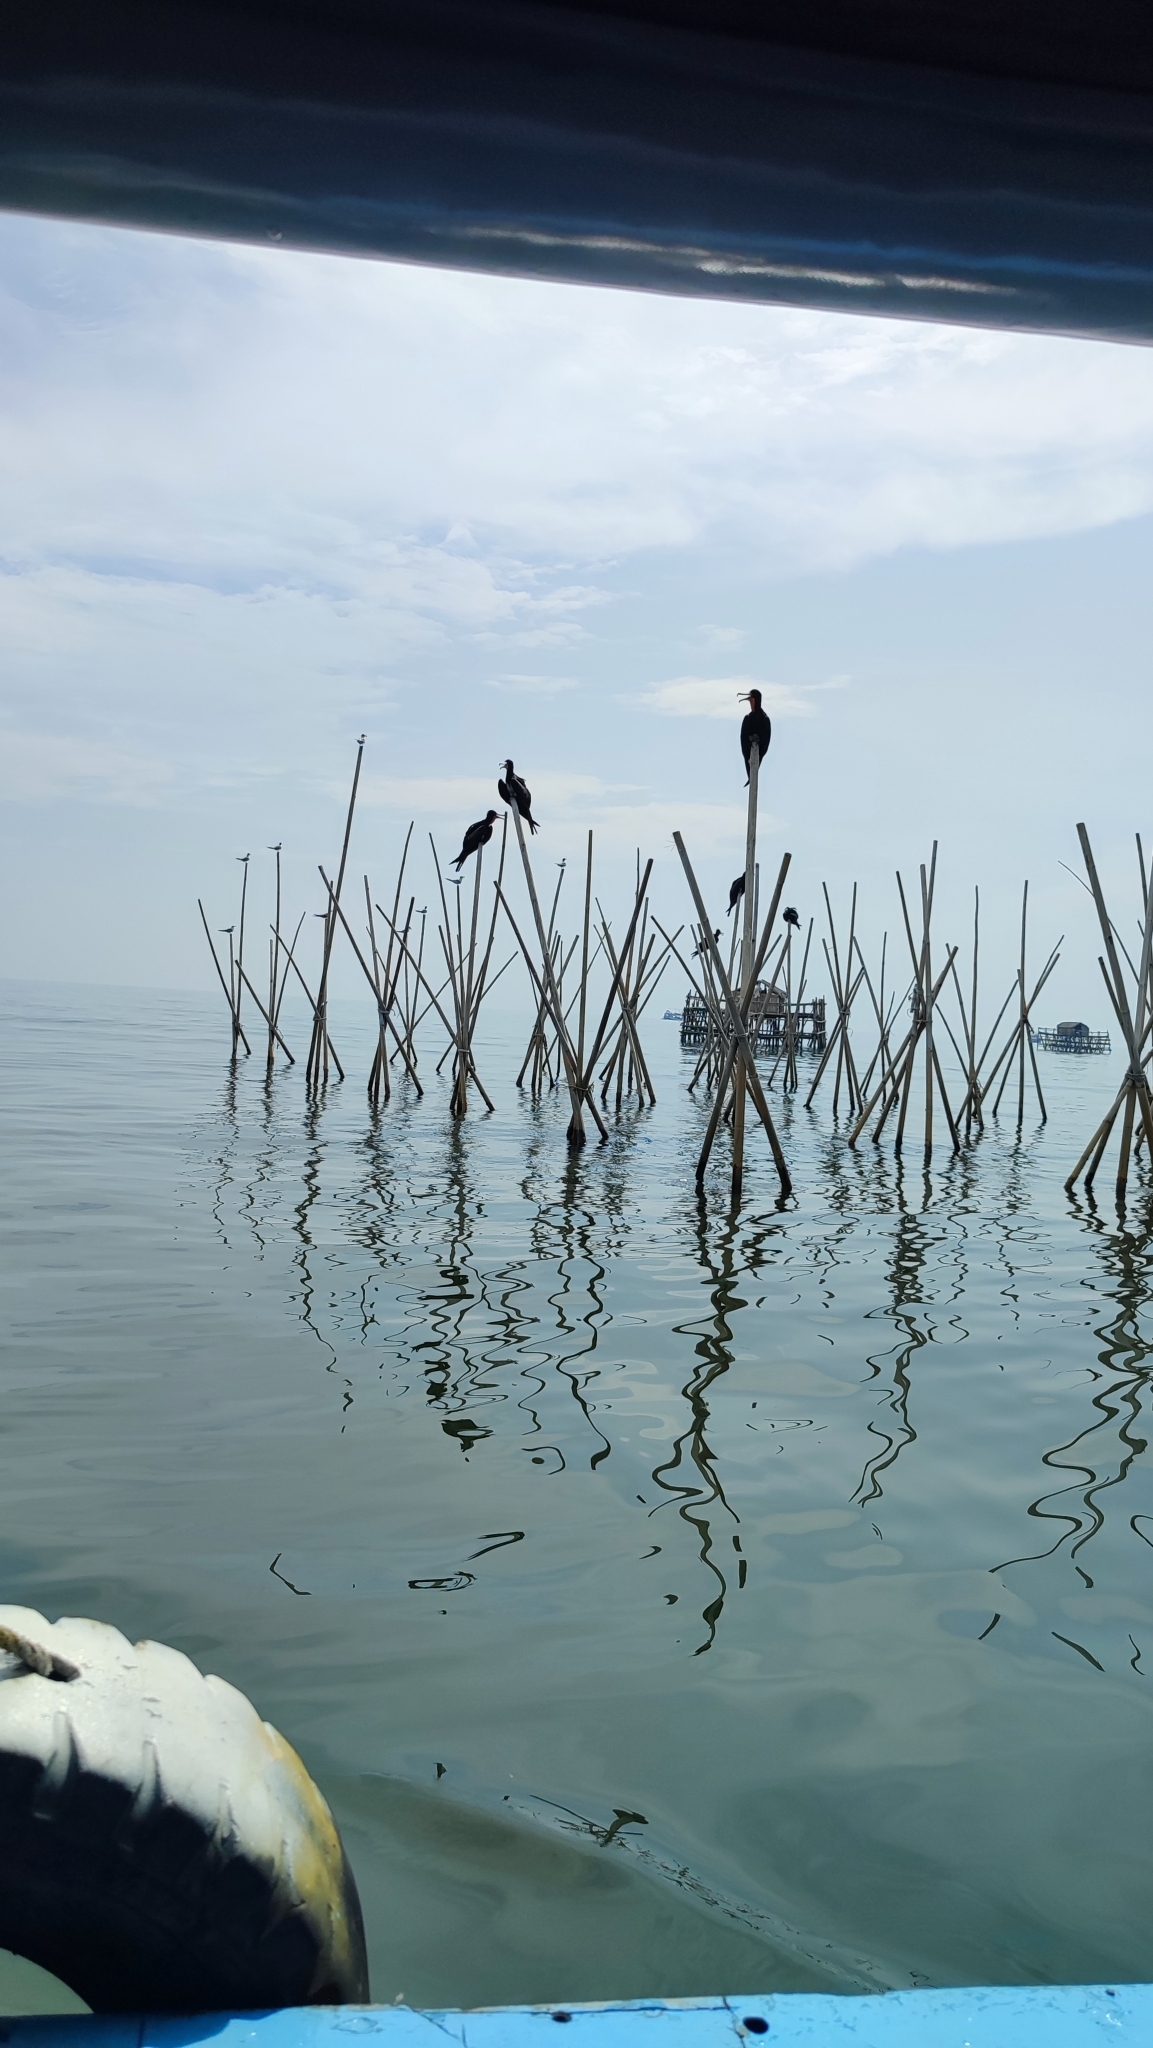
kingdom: Animalia
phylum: Chordata
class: Aves
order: Suliformes
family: Fregatidae
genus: Fregata
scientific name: Fregata andrewsi
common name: Christmas frigatebird
